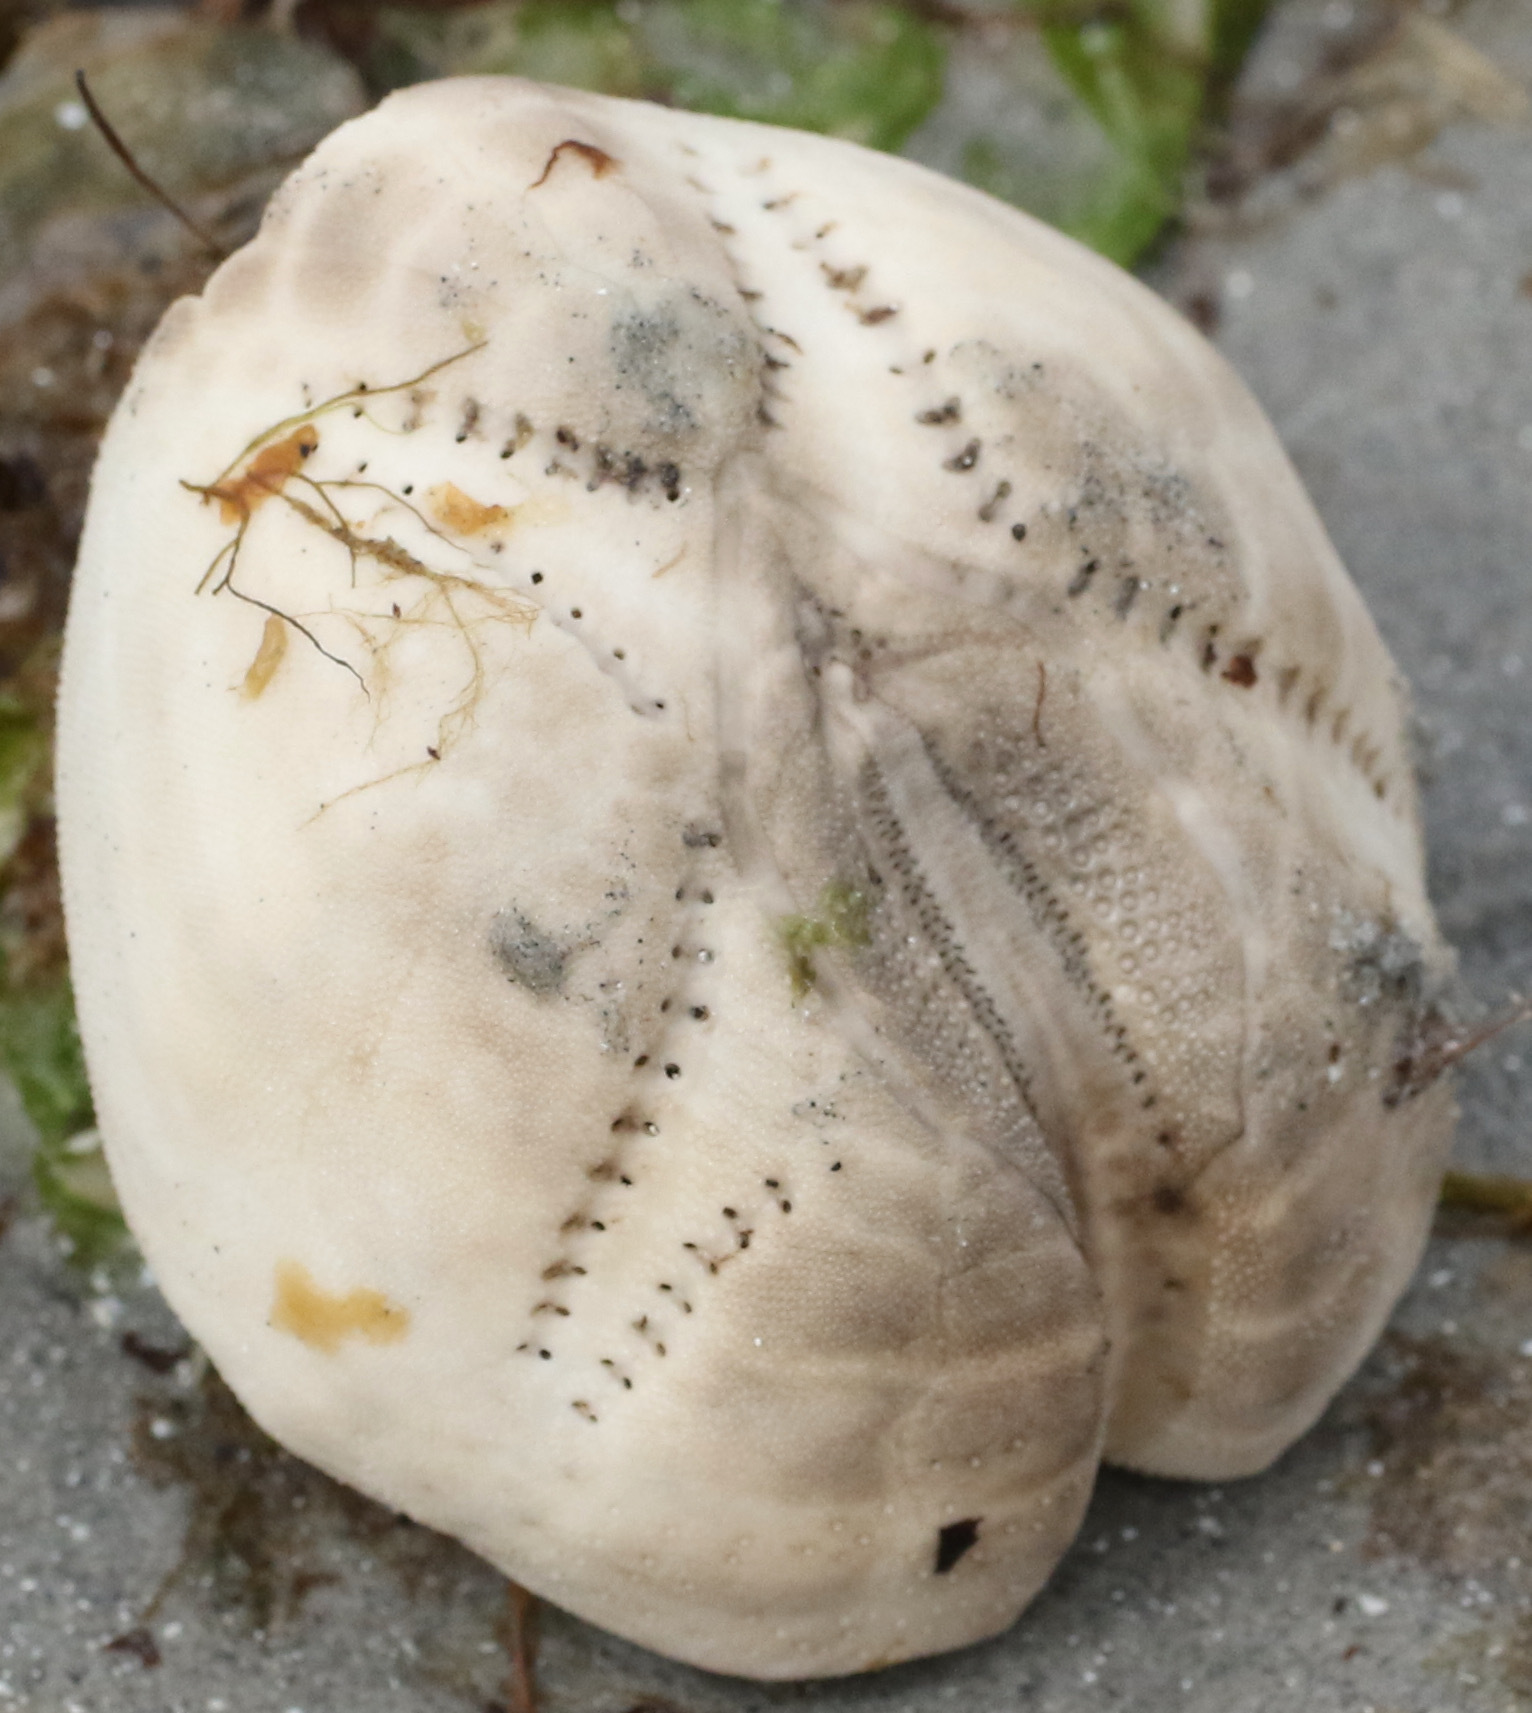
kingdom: Animalia
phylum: Echinodermata
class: Echinoidea
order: Spatangoida
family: Loveniidae
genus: Echinocardium
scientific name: Echinocardium cordatum
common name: Heart-urchin
